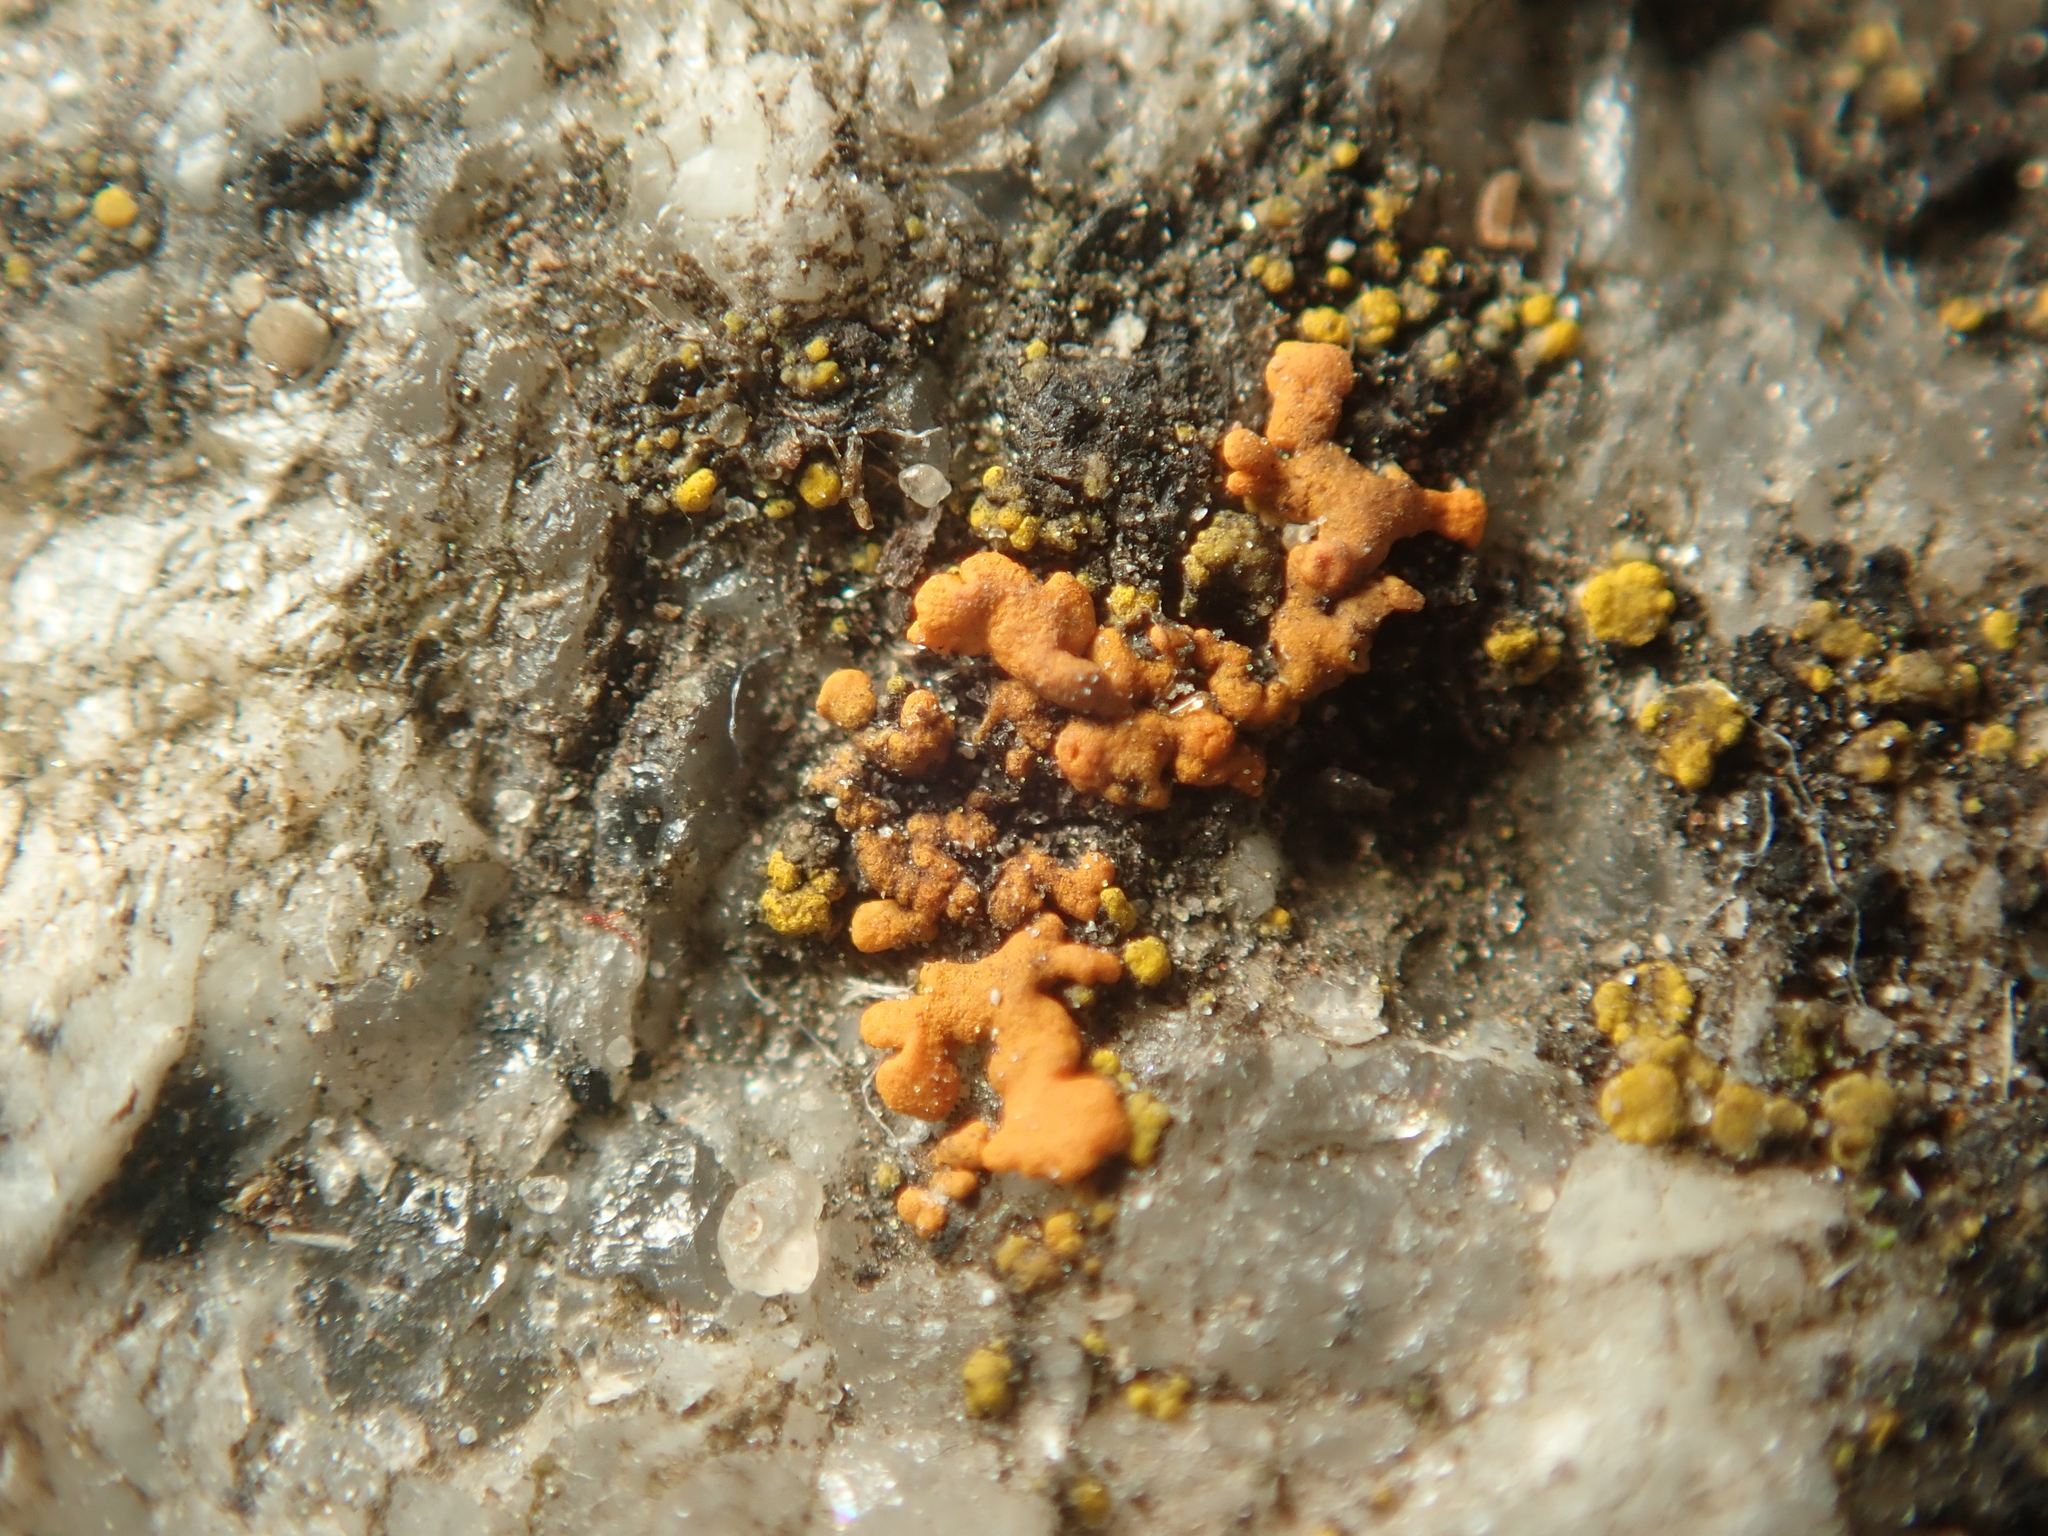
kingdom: Fungi
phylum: Ascomycota
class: Lecanoromycetes
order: Teloschistales
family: Teloschistaceae
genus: Xanthoria
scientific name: Xanthoria elegans
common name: Elegant sunburst lichen
